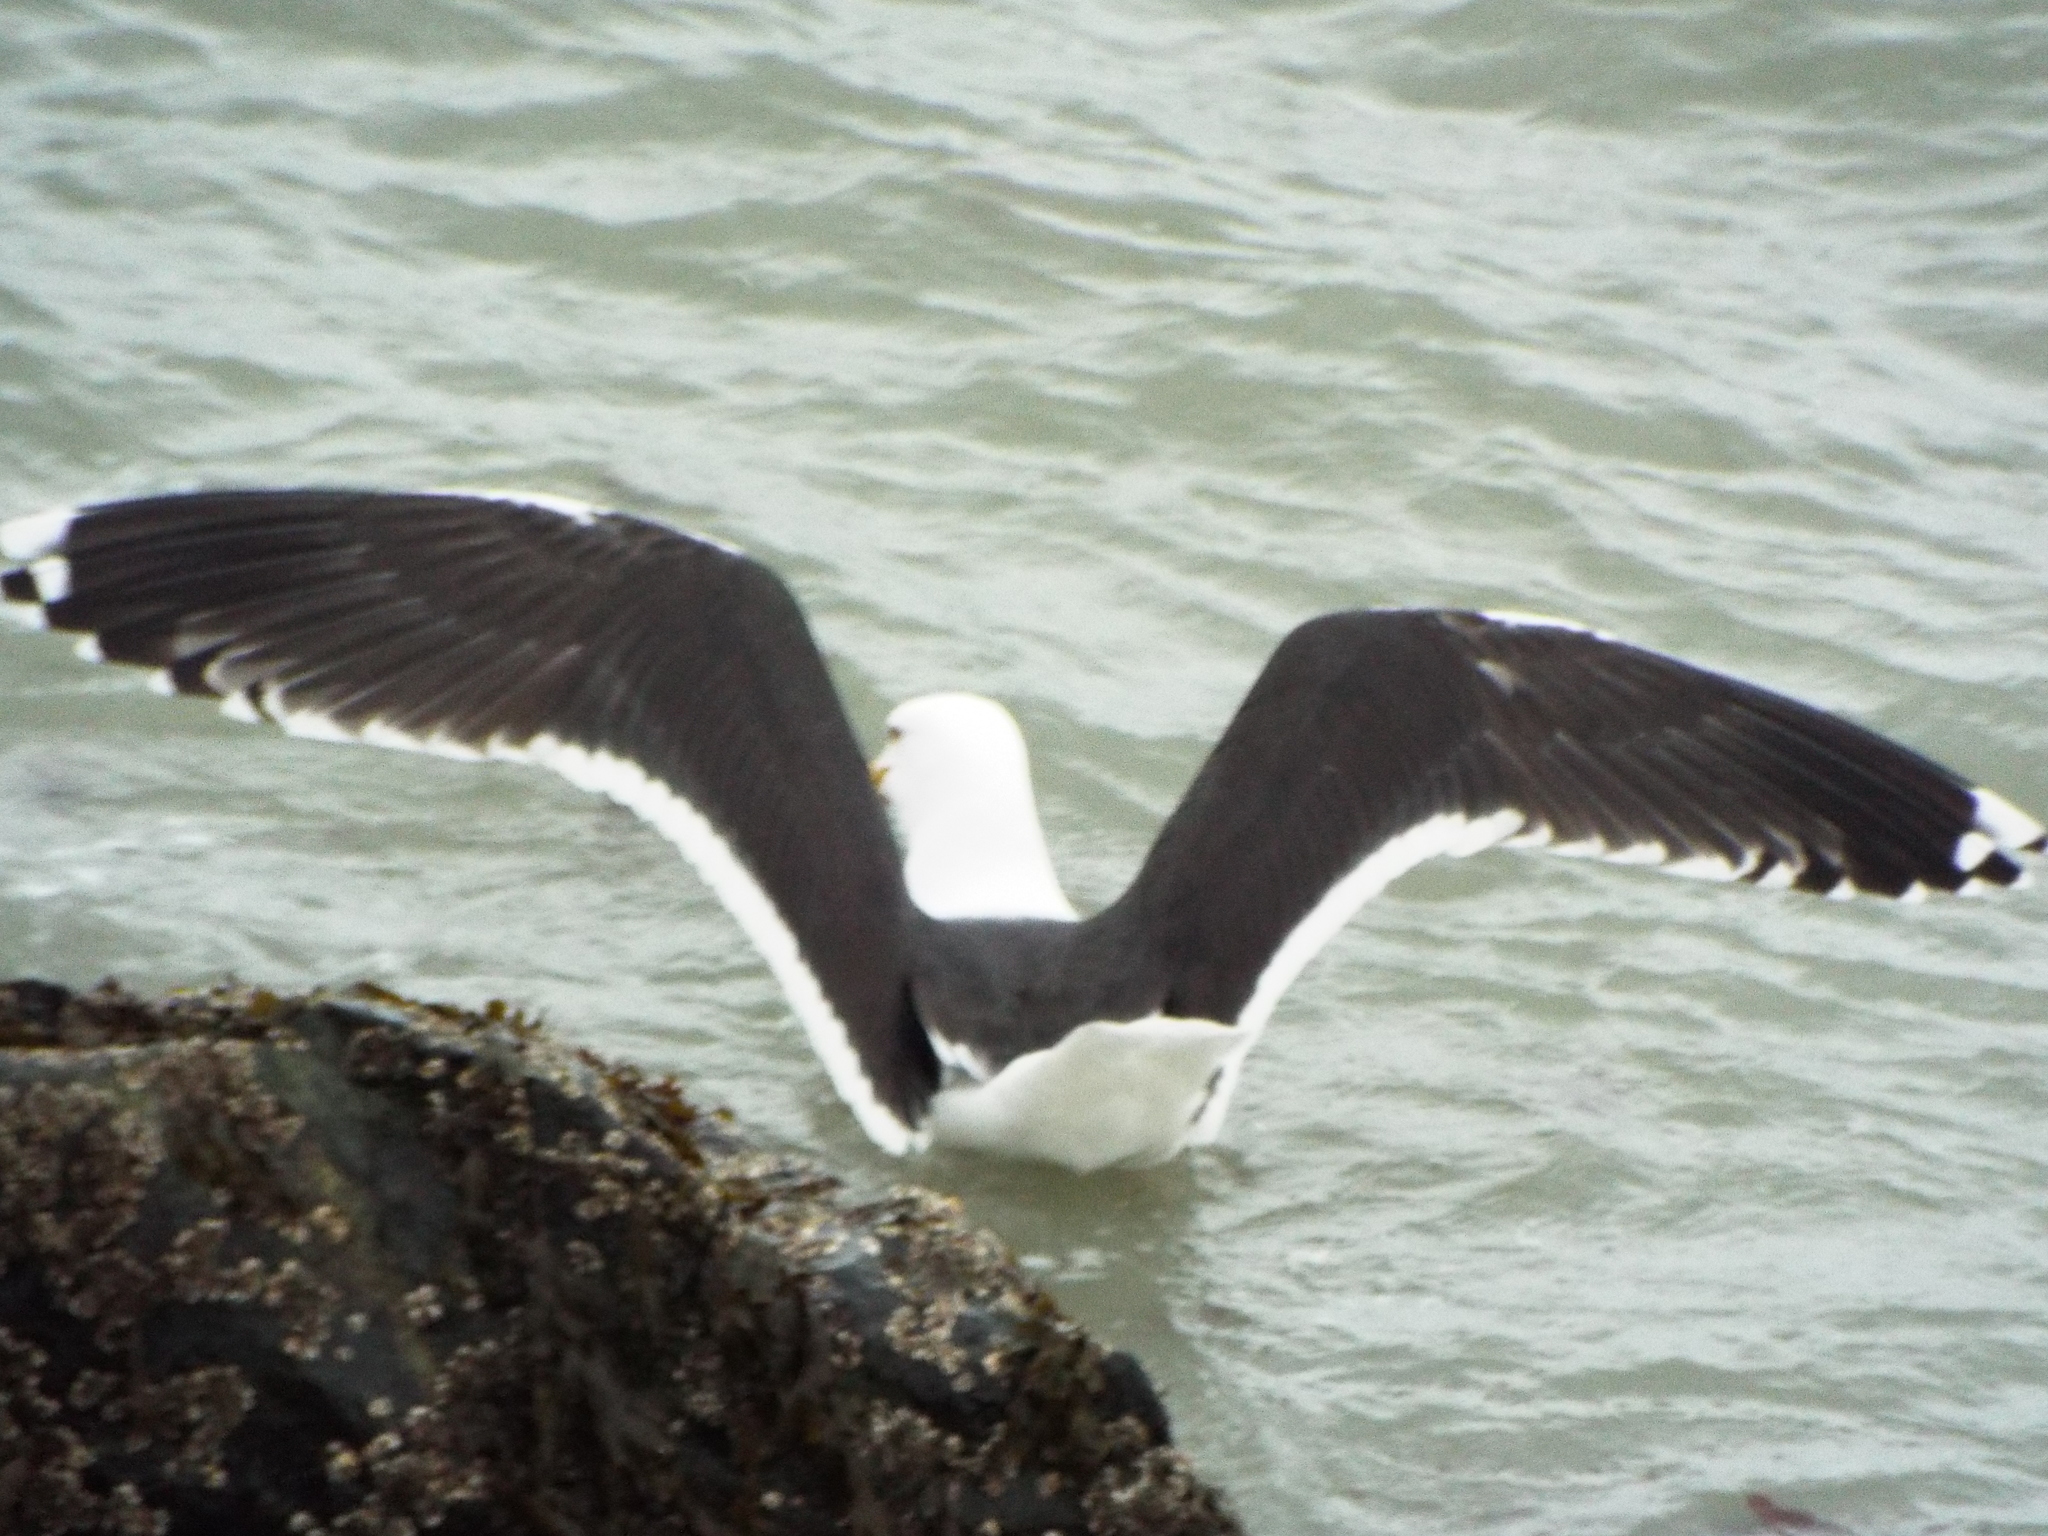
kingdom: Animalia
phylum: Chordata
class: Aves
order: Charadriiformes
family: Laridae
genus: Larus
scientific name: Larus marinus
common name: Great black-backed gull
